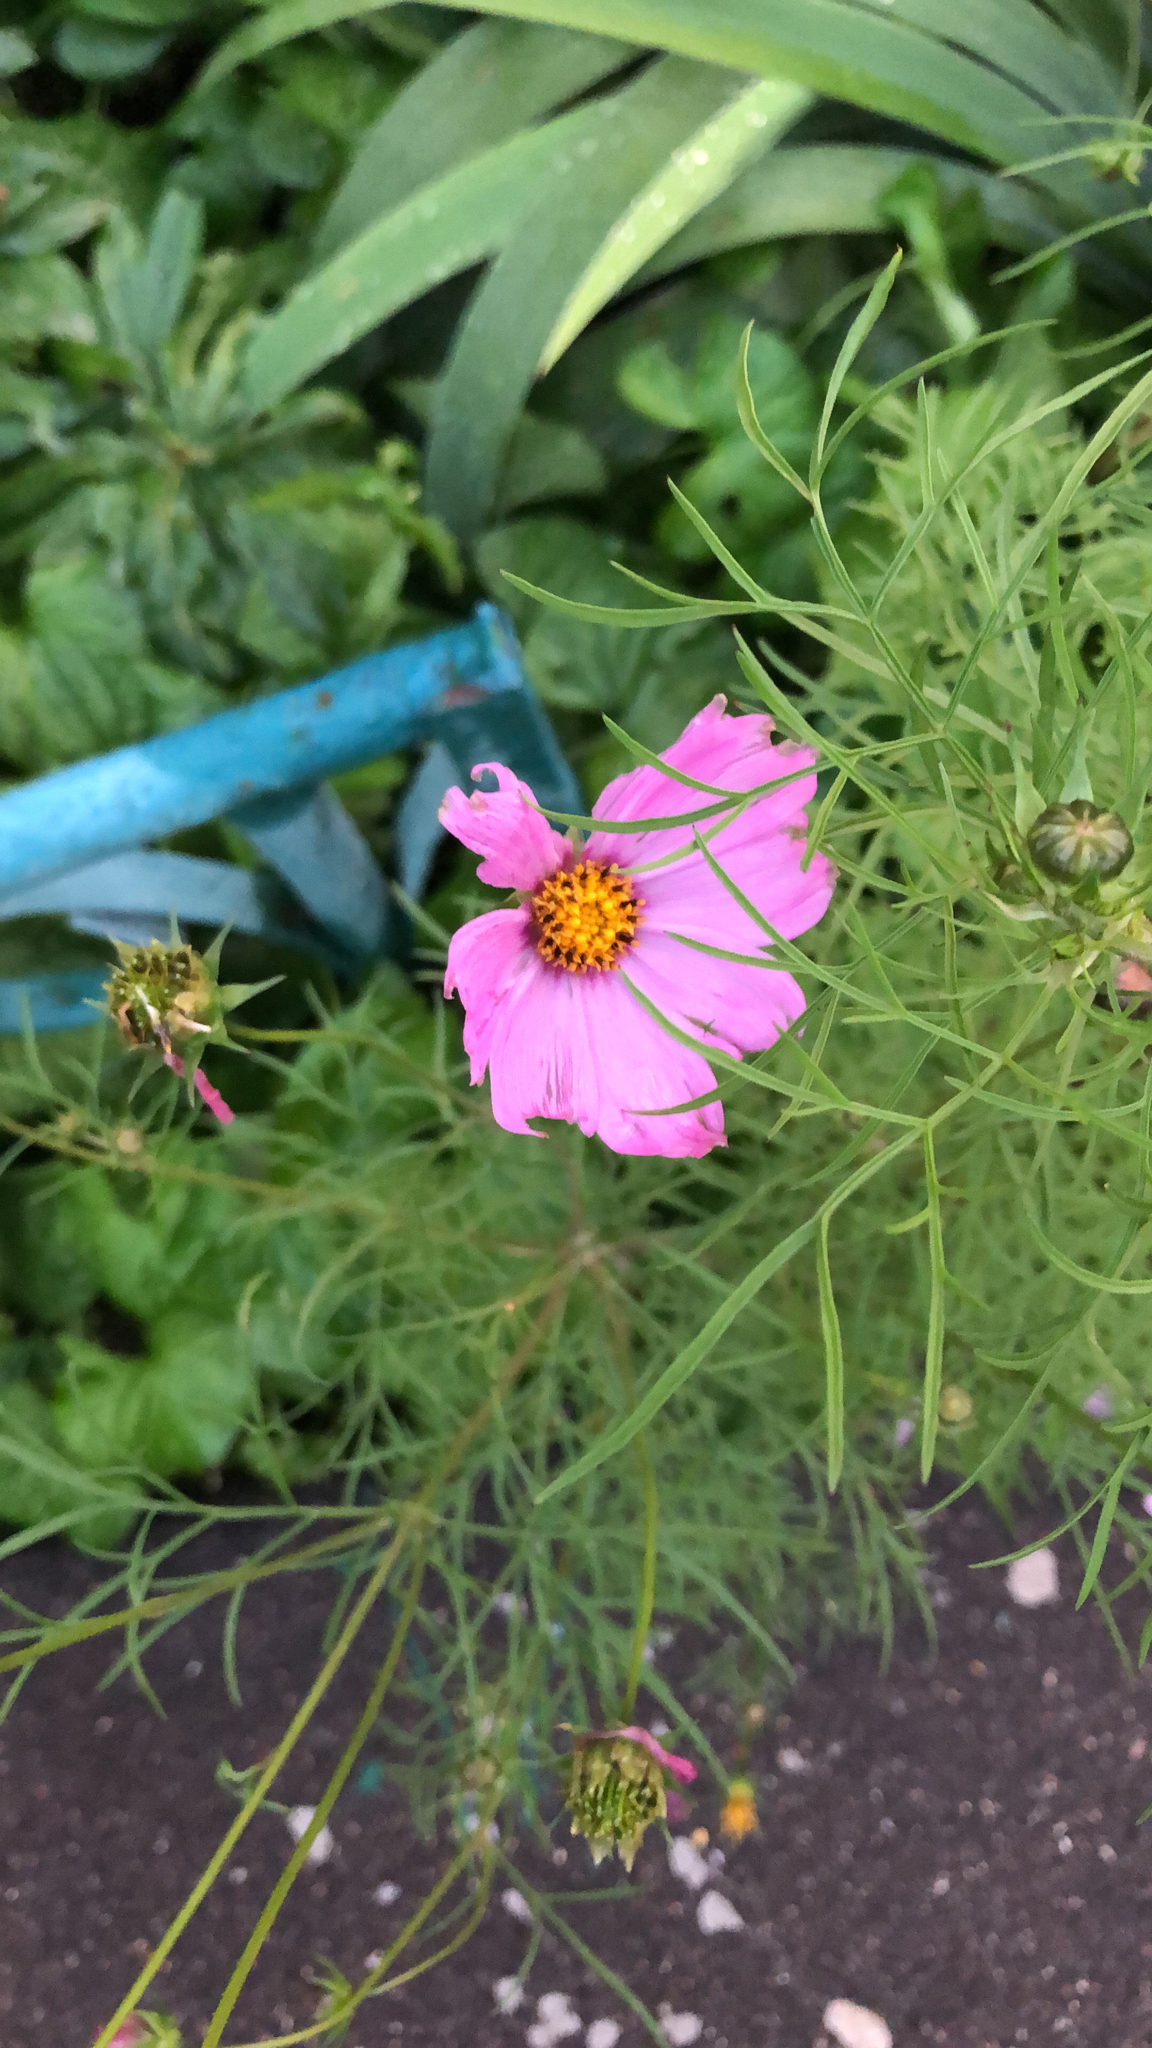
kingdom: Plantae
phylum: Tracheophyta
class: Magnoliopsida
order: Asterales
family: Asteraceae
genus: Cosmos
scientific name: Cosmos bipinnatus
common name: Garden cosmos
